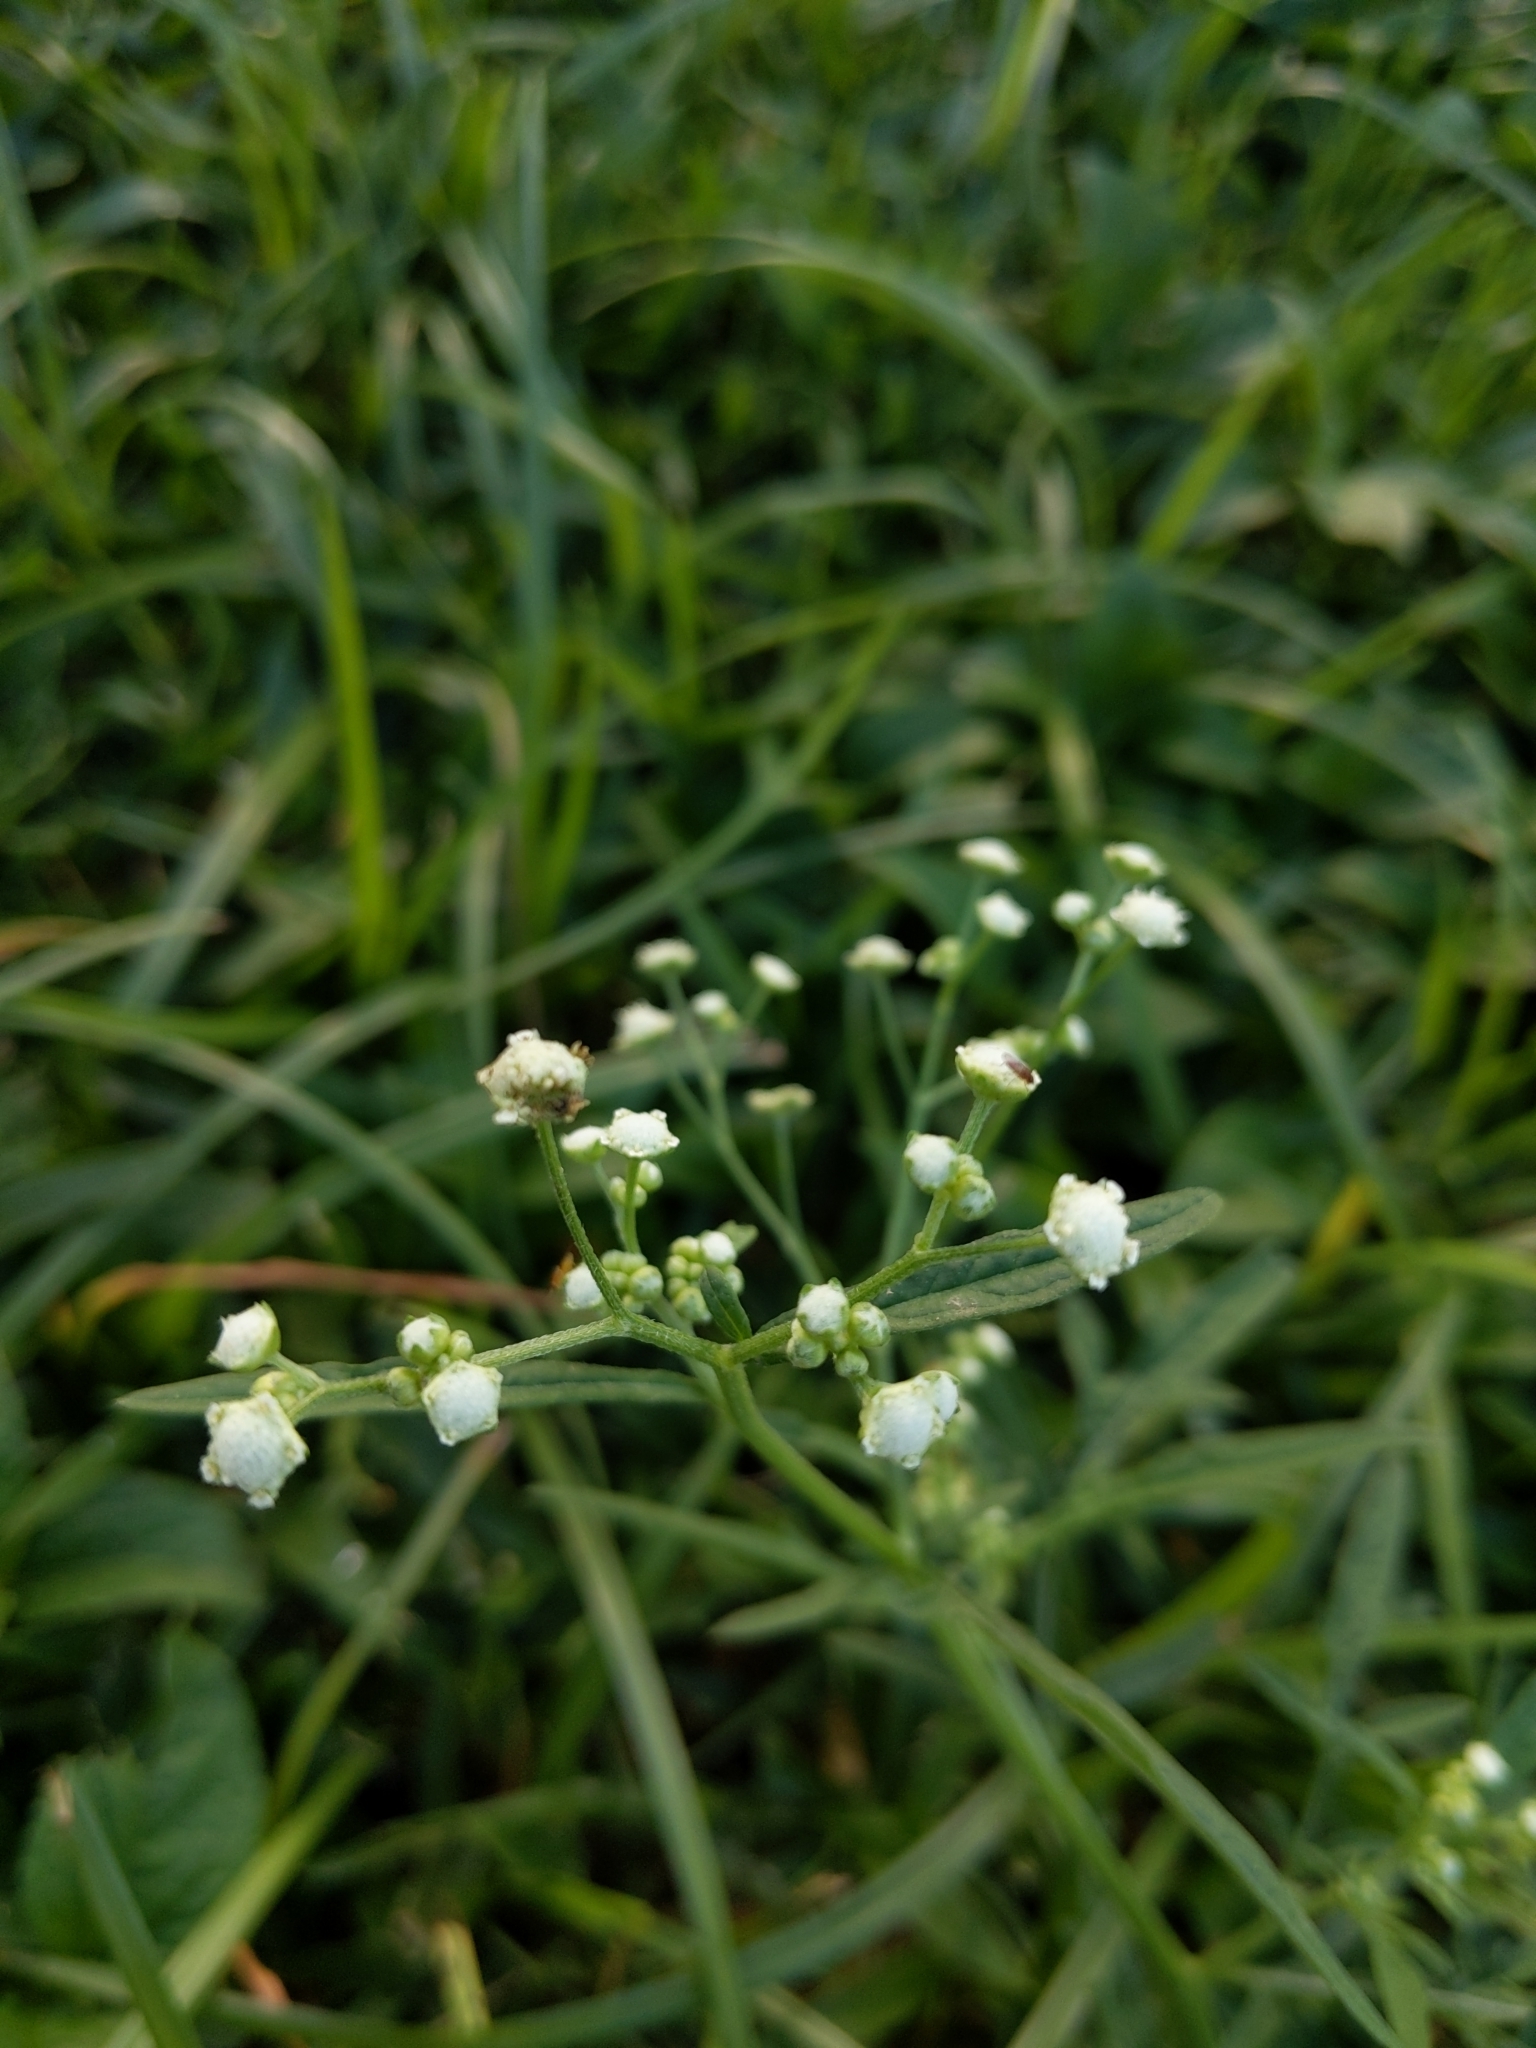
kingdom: Plantae
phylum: Tracheophyta
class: Magnoliopsida
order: Asterales
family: Asteraceae
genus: Parthenium
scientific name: Parthenium hysterophorus
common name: Santa maria feverfew
